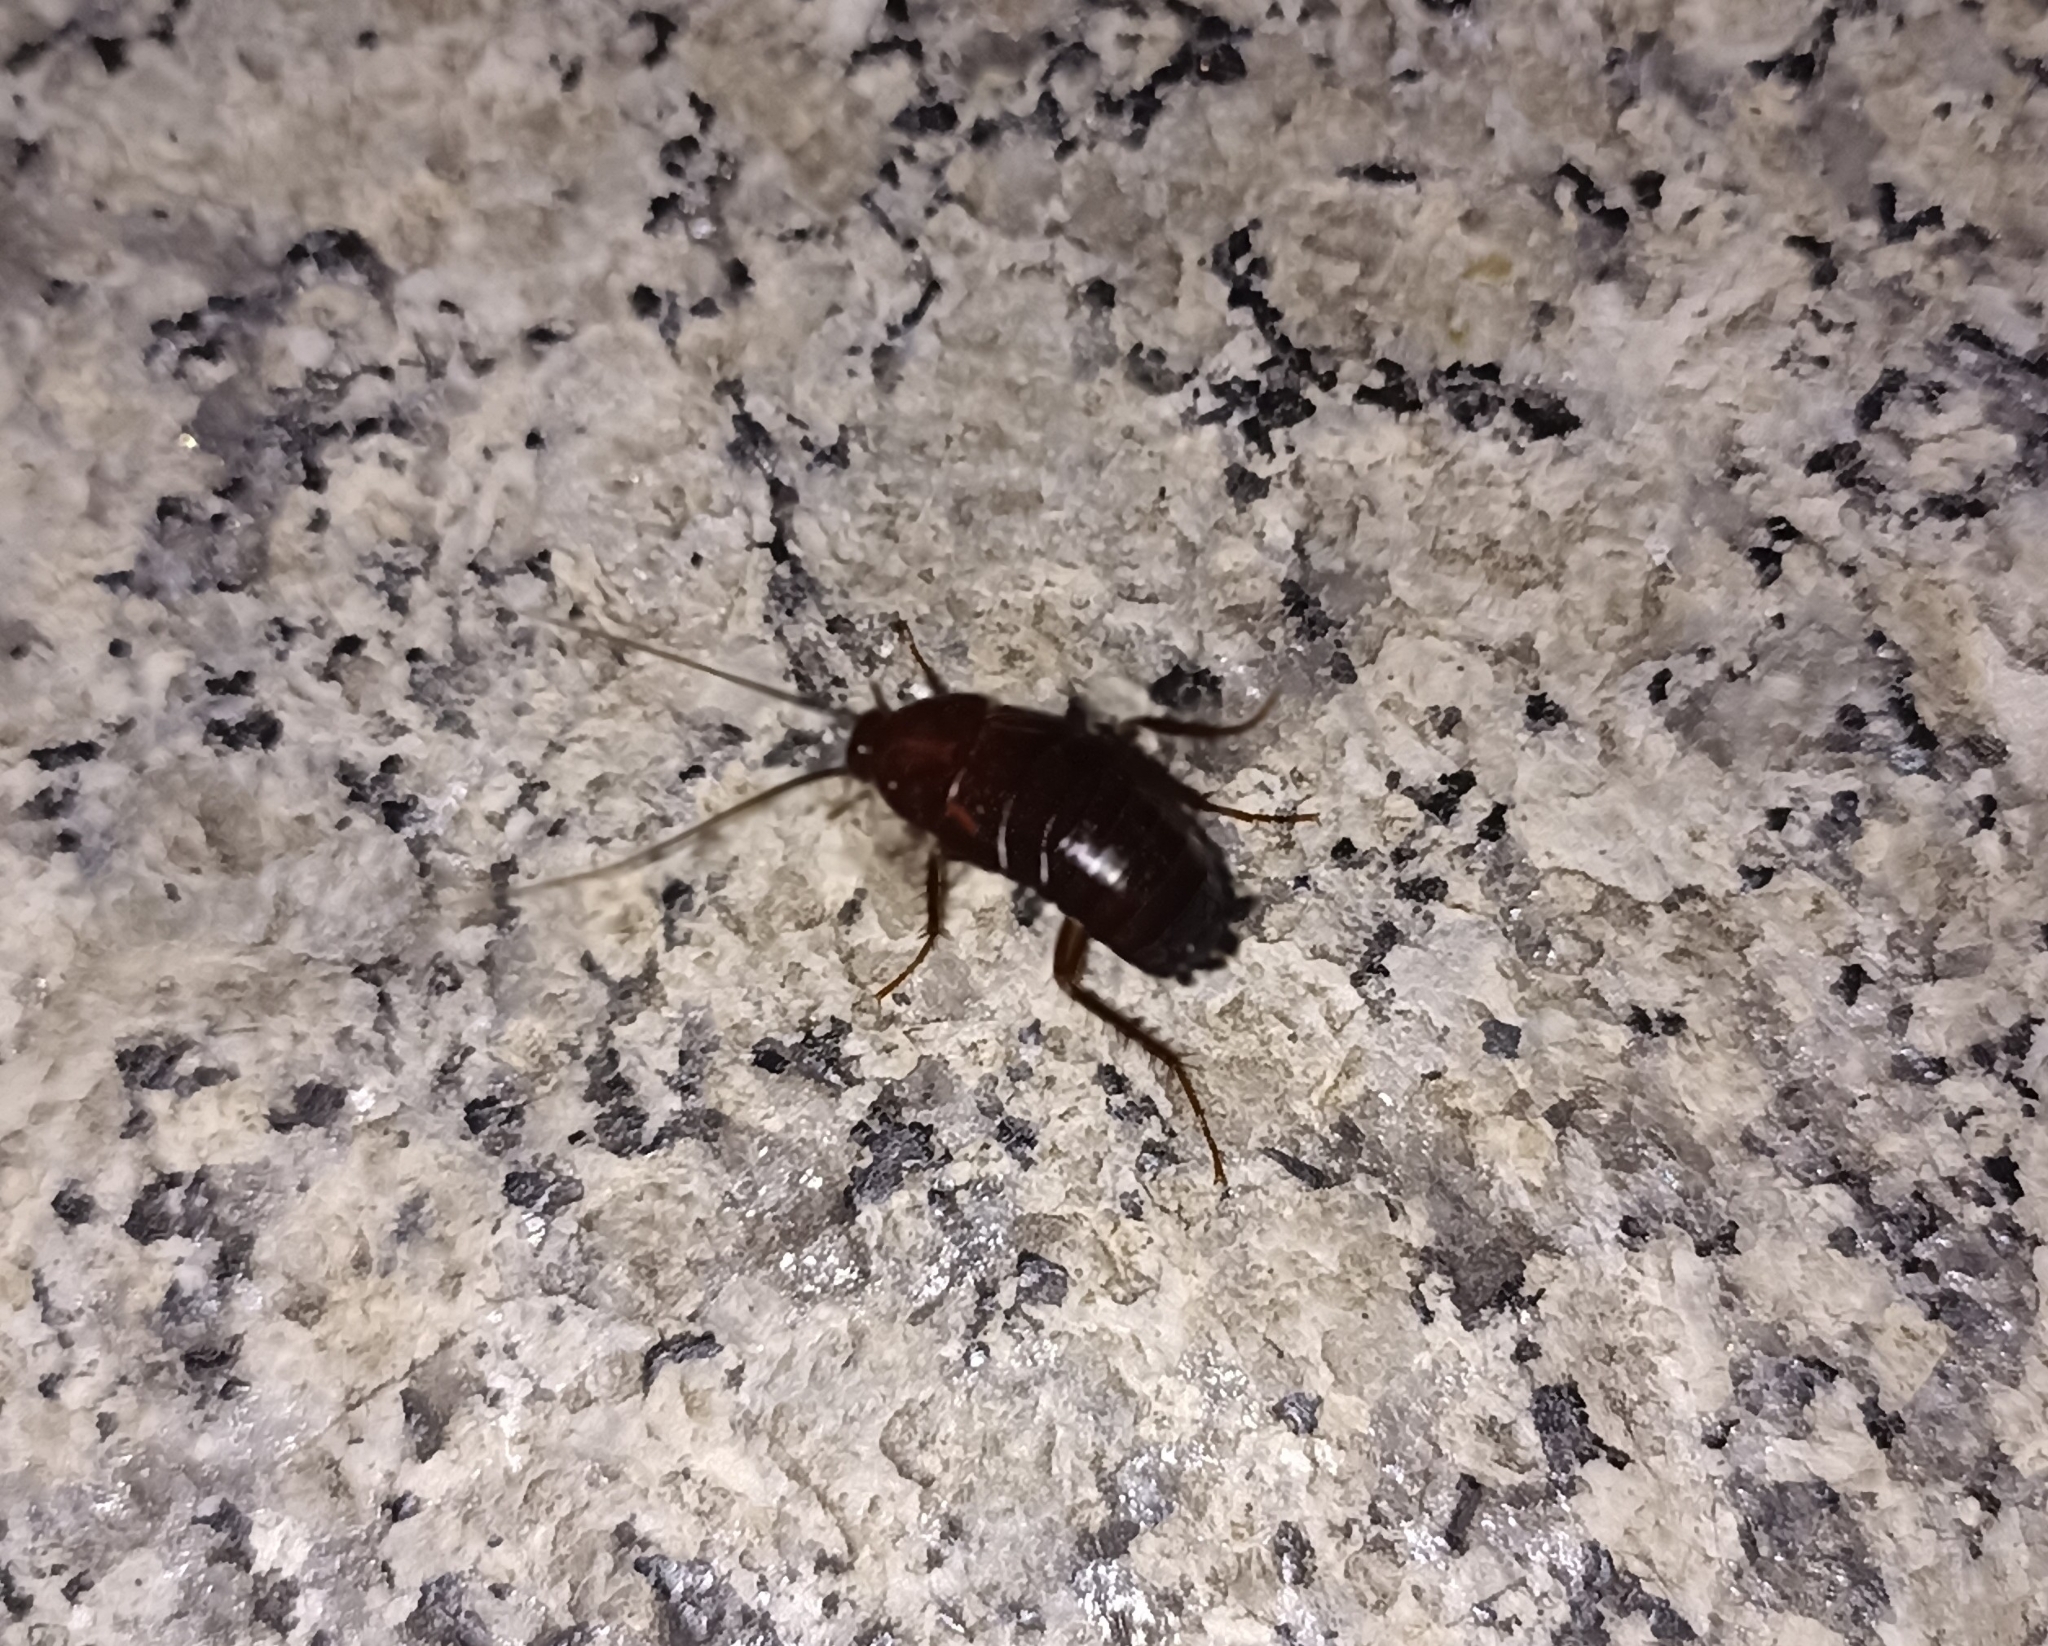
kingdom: Animalia
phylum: Arthropoda
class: Insecta
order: Blattodea
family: Blattidae
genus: Blatta
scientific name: Blatta orientalis
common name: Oriental cockroach
